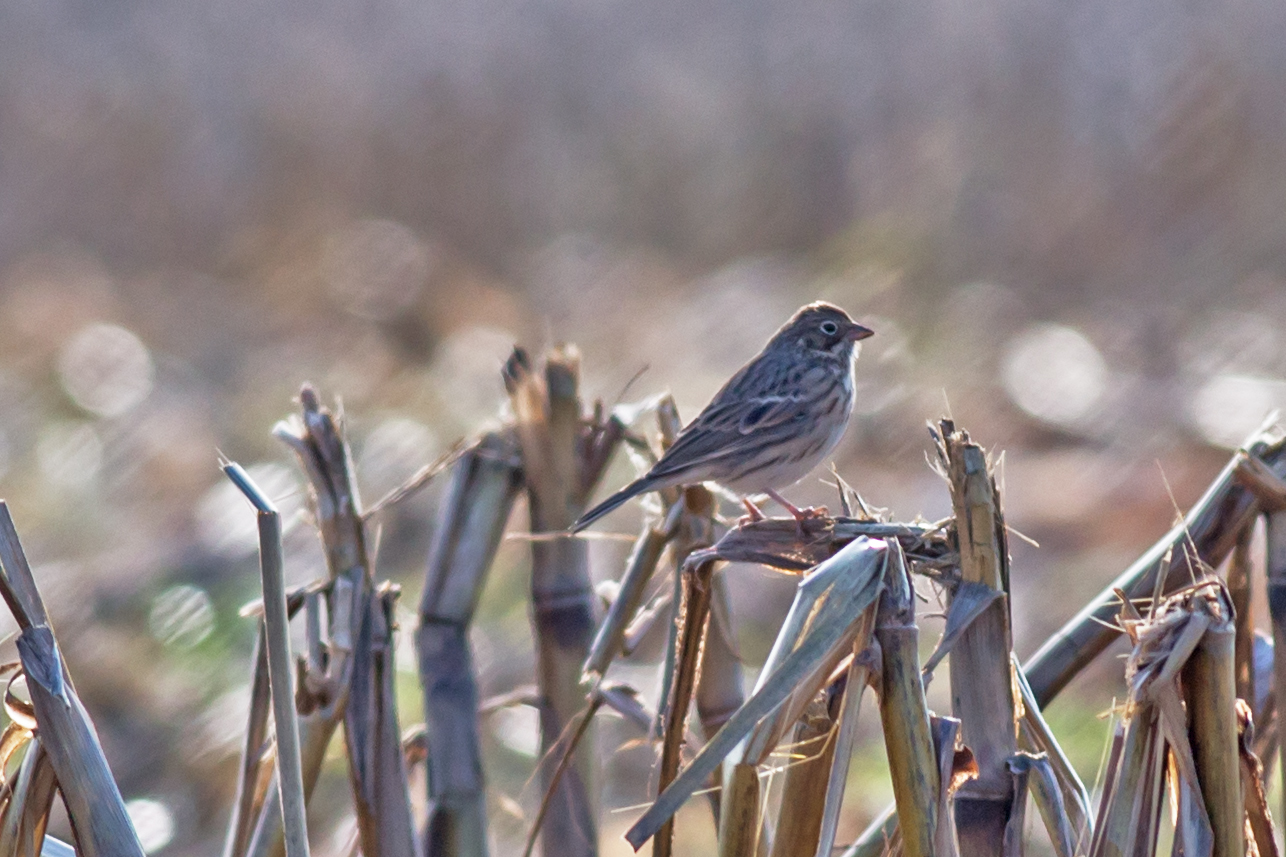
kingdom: Animalia
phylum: Chordata
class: Aves
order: Passeriformes
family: Passerellidae
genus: Pooecetes
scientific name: Pooecetes gramineus
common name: Vesper sparrow
